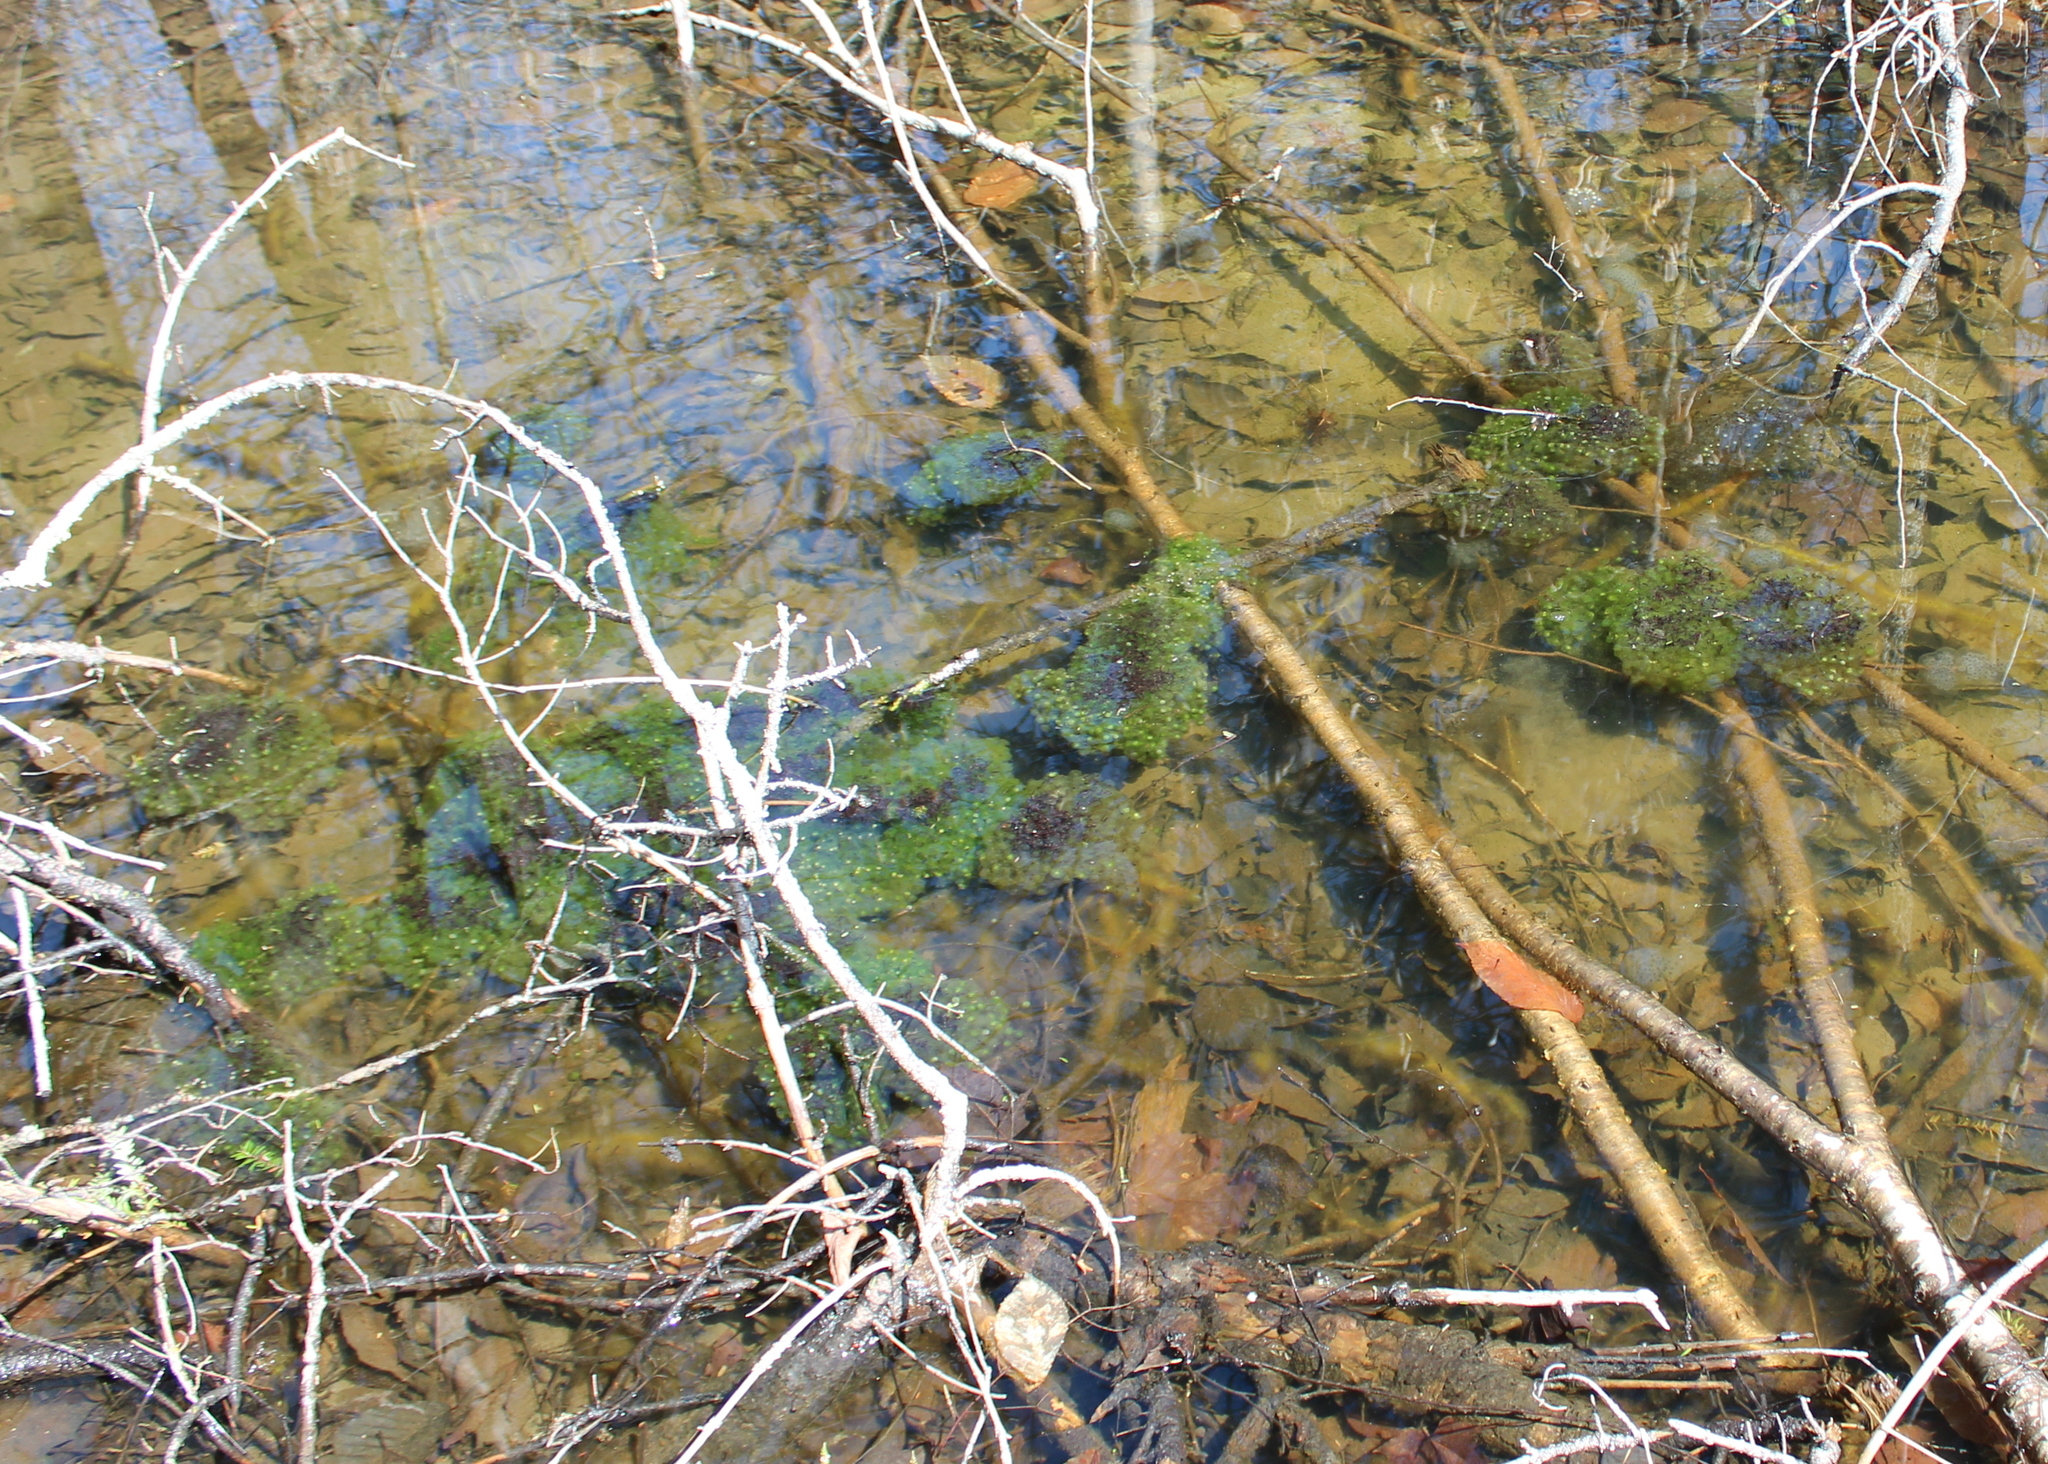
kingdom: Animalia
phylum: Chordata
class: Amphibia
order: Anura
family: Ranidae
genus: Lithobates
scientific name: Lithobates sylvaticus
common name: Wood frog
